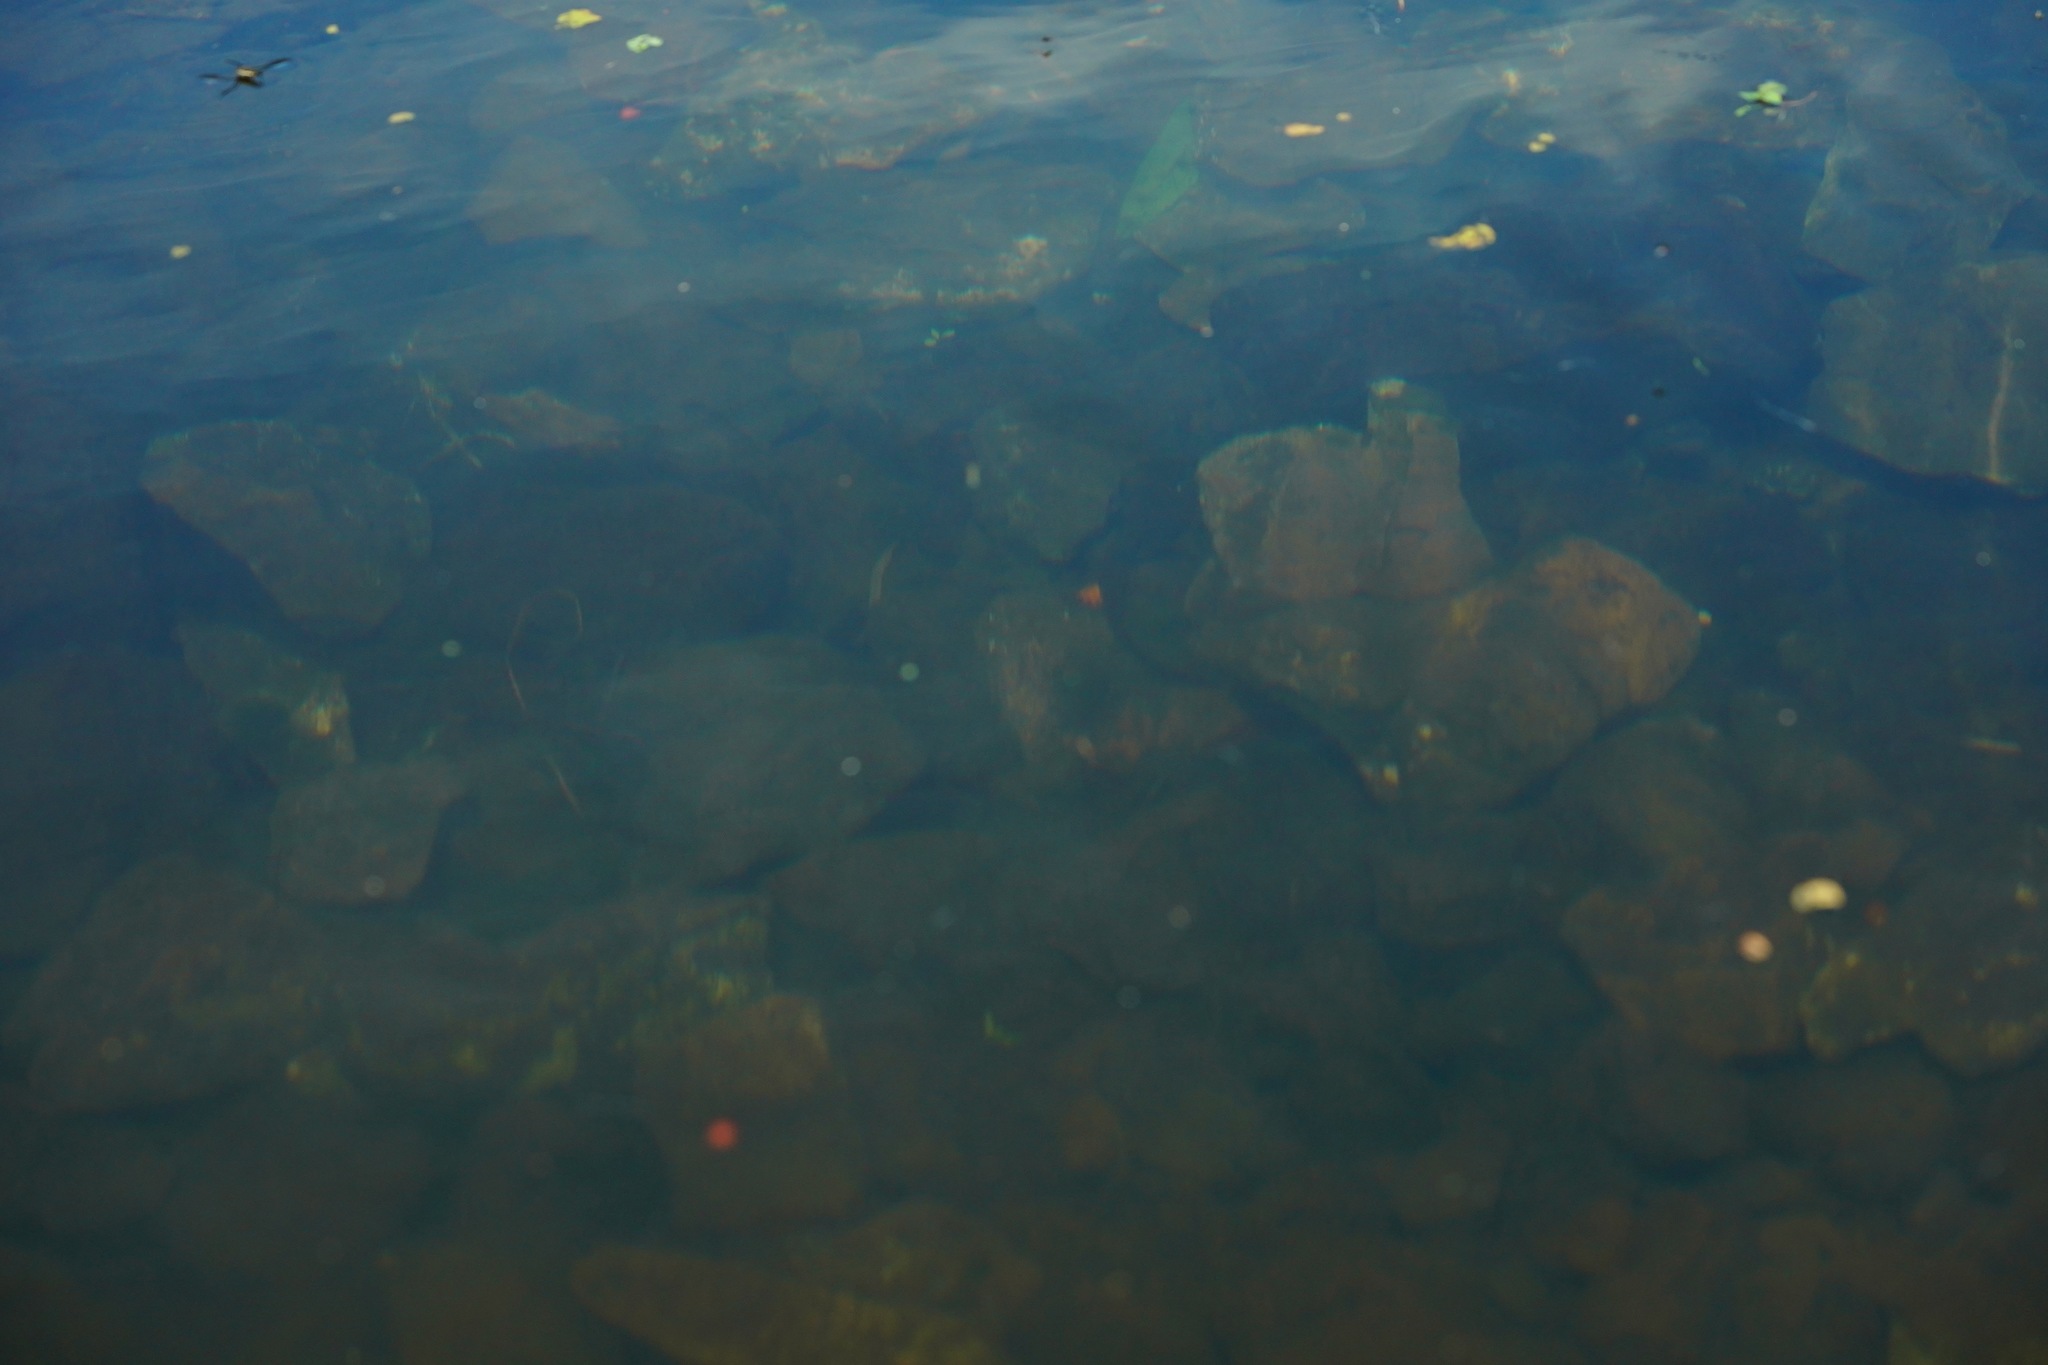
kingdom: Animalia
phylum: Chordata
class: Amphibia
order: Caudata
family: Salamandridae
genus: Taricha
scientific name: Taricha sierrae
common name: Sierra newt
